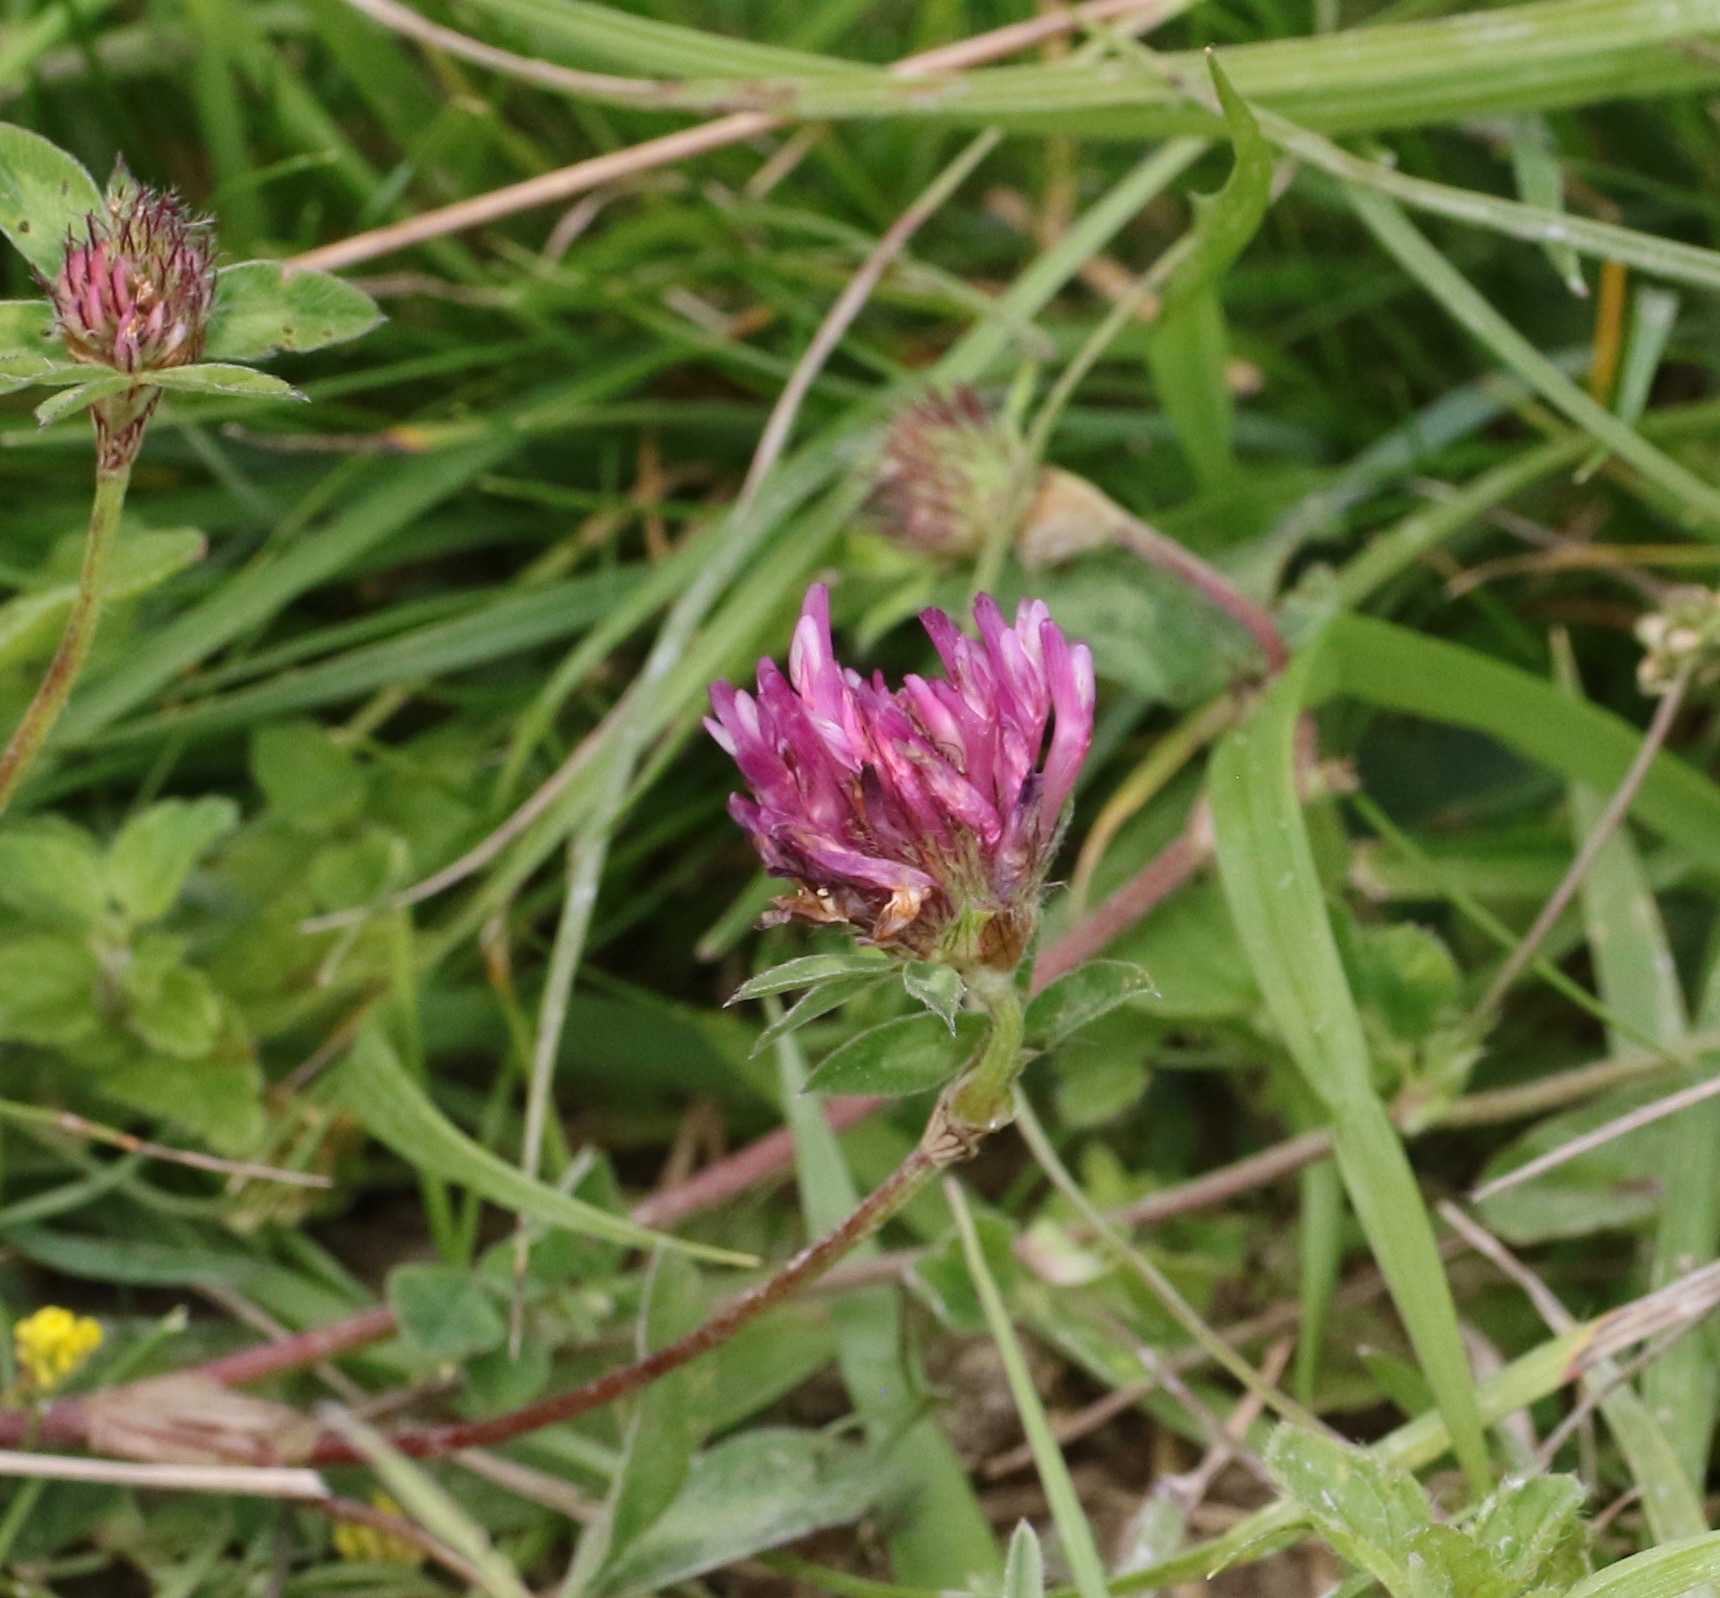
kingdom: Plantae
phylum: Tracheophyta
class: Magnoliopsida
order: Fabales
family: Fabaceae
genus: Trifolium
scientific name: Trifolium pratense
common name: Red clover
